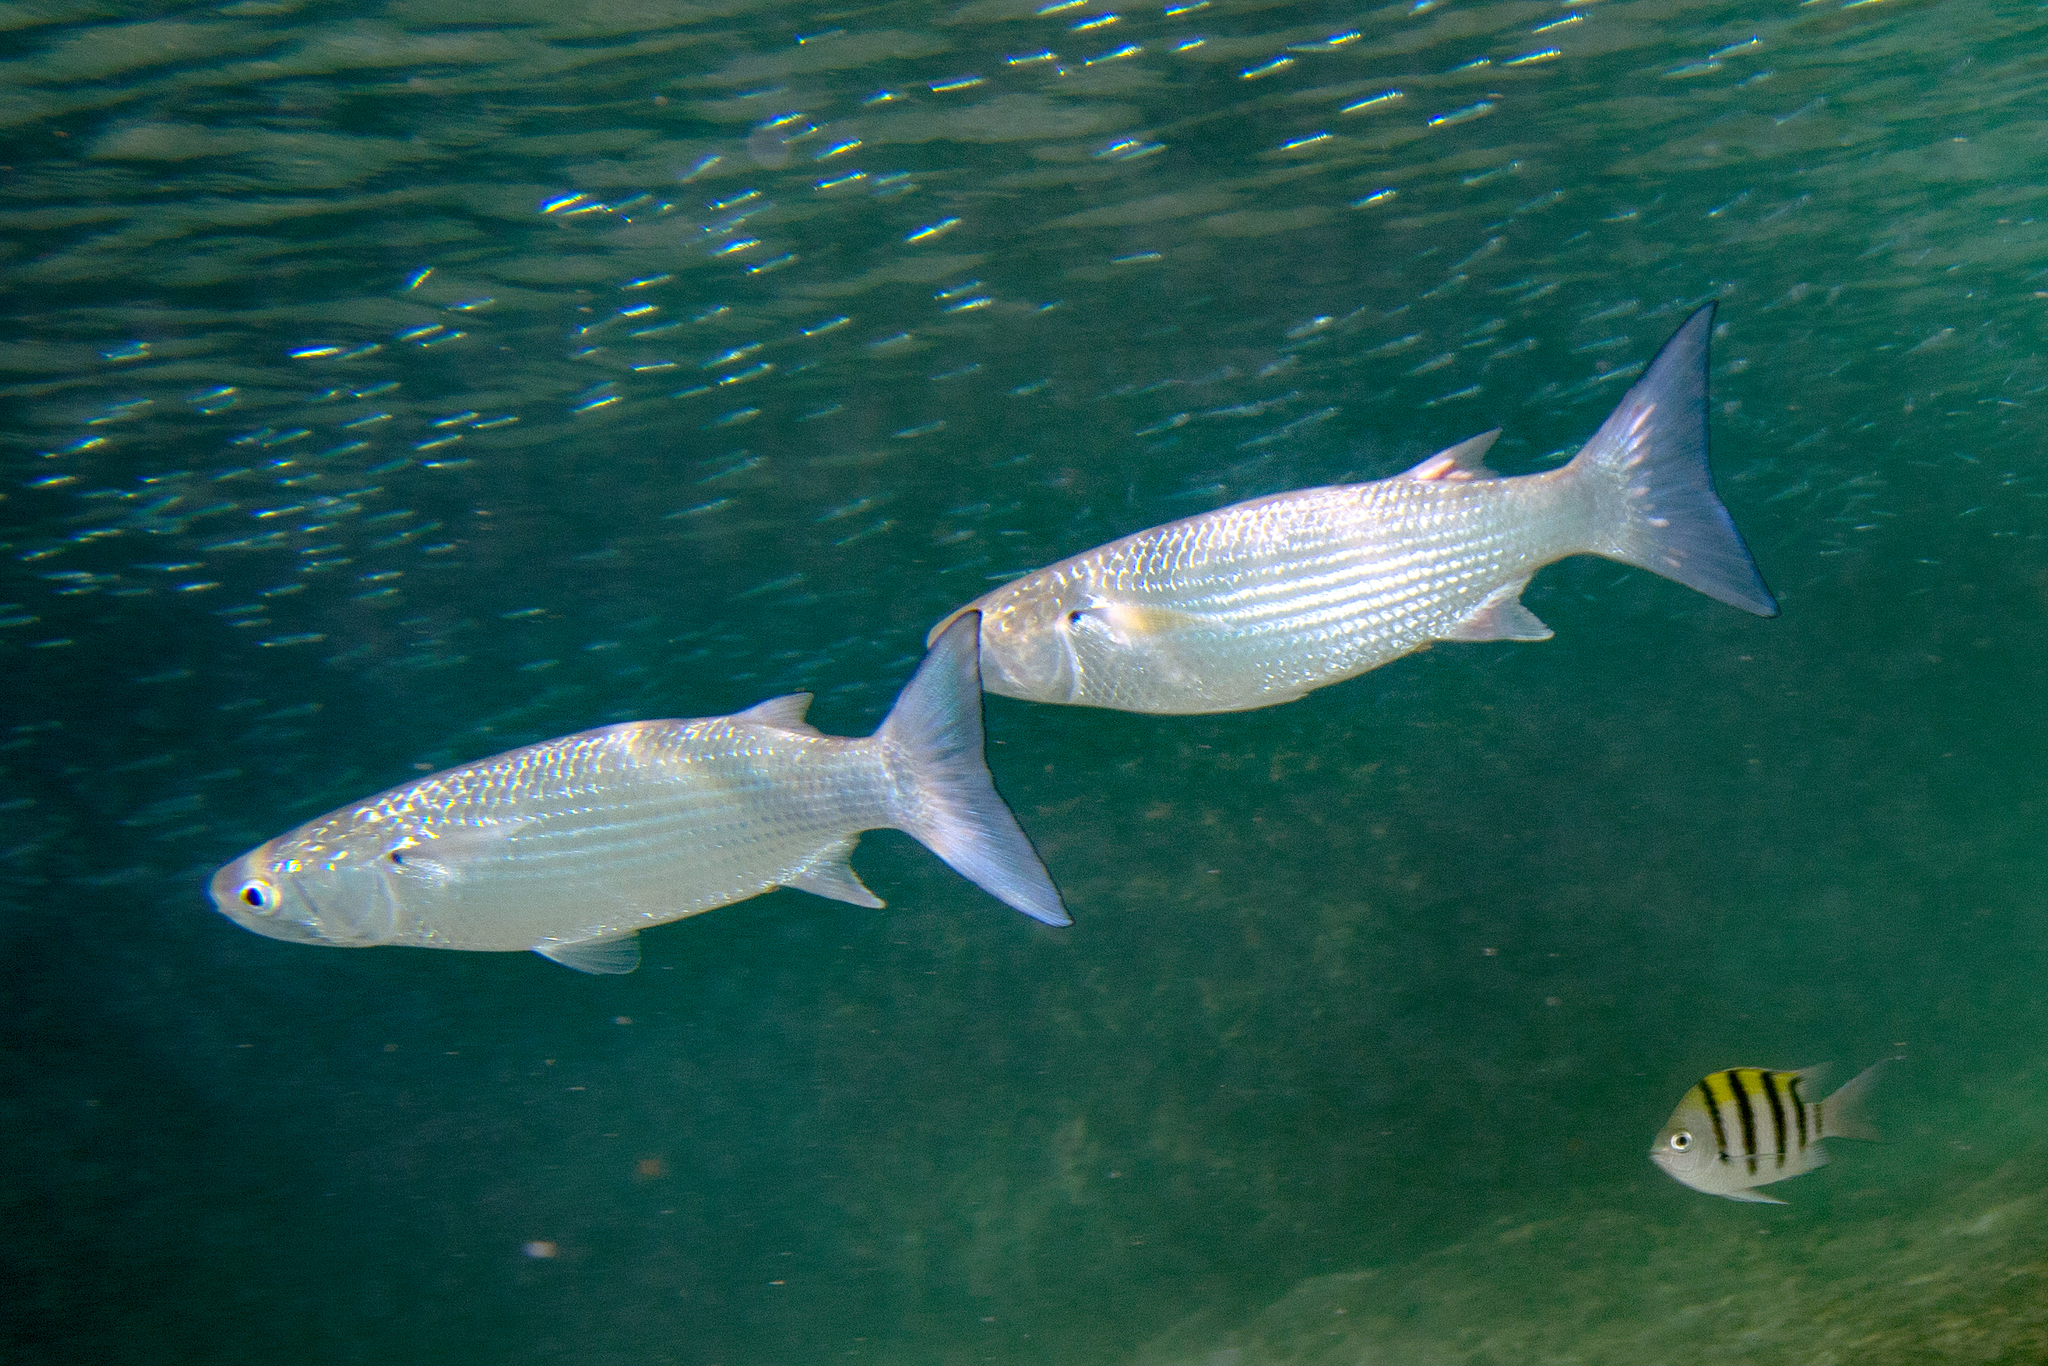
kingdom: Animalia
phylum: Chordata
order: Mugiliformes
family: Mugilidae
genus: Crenimugil
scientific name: Crenimugil crenilabis
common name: Fringelip mullet
